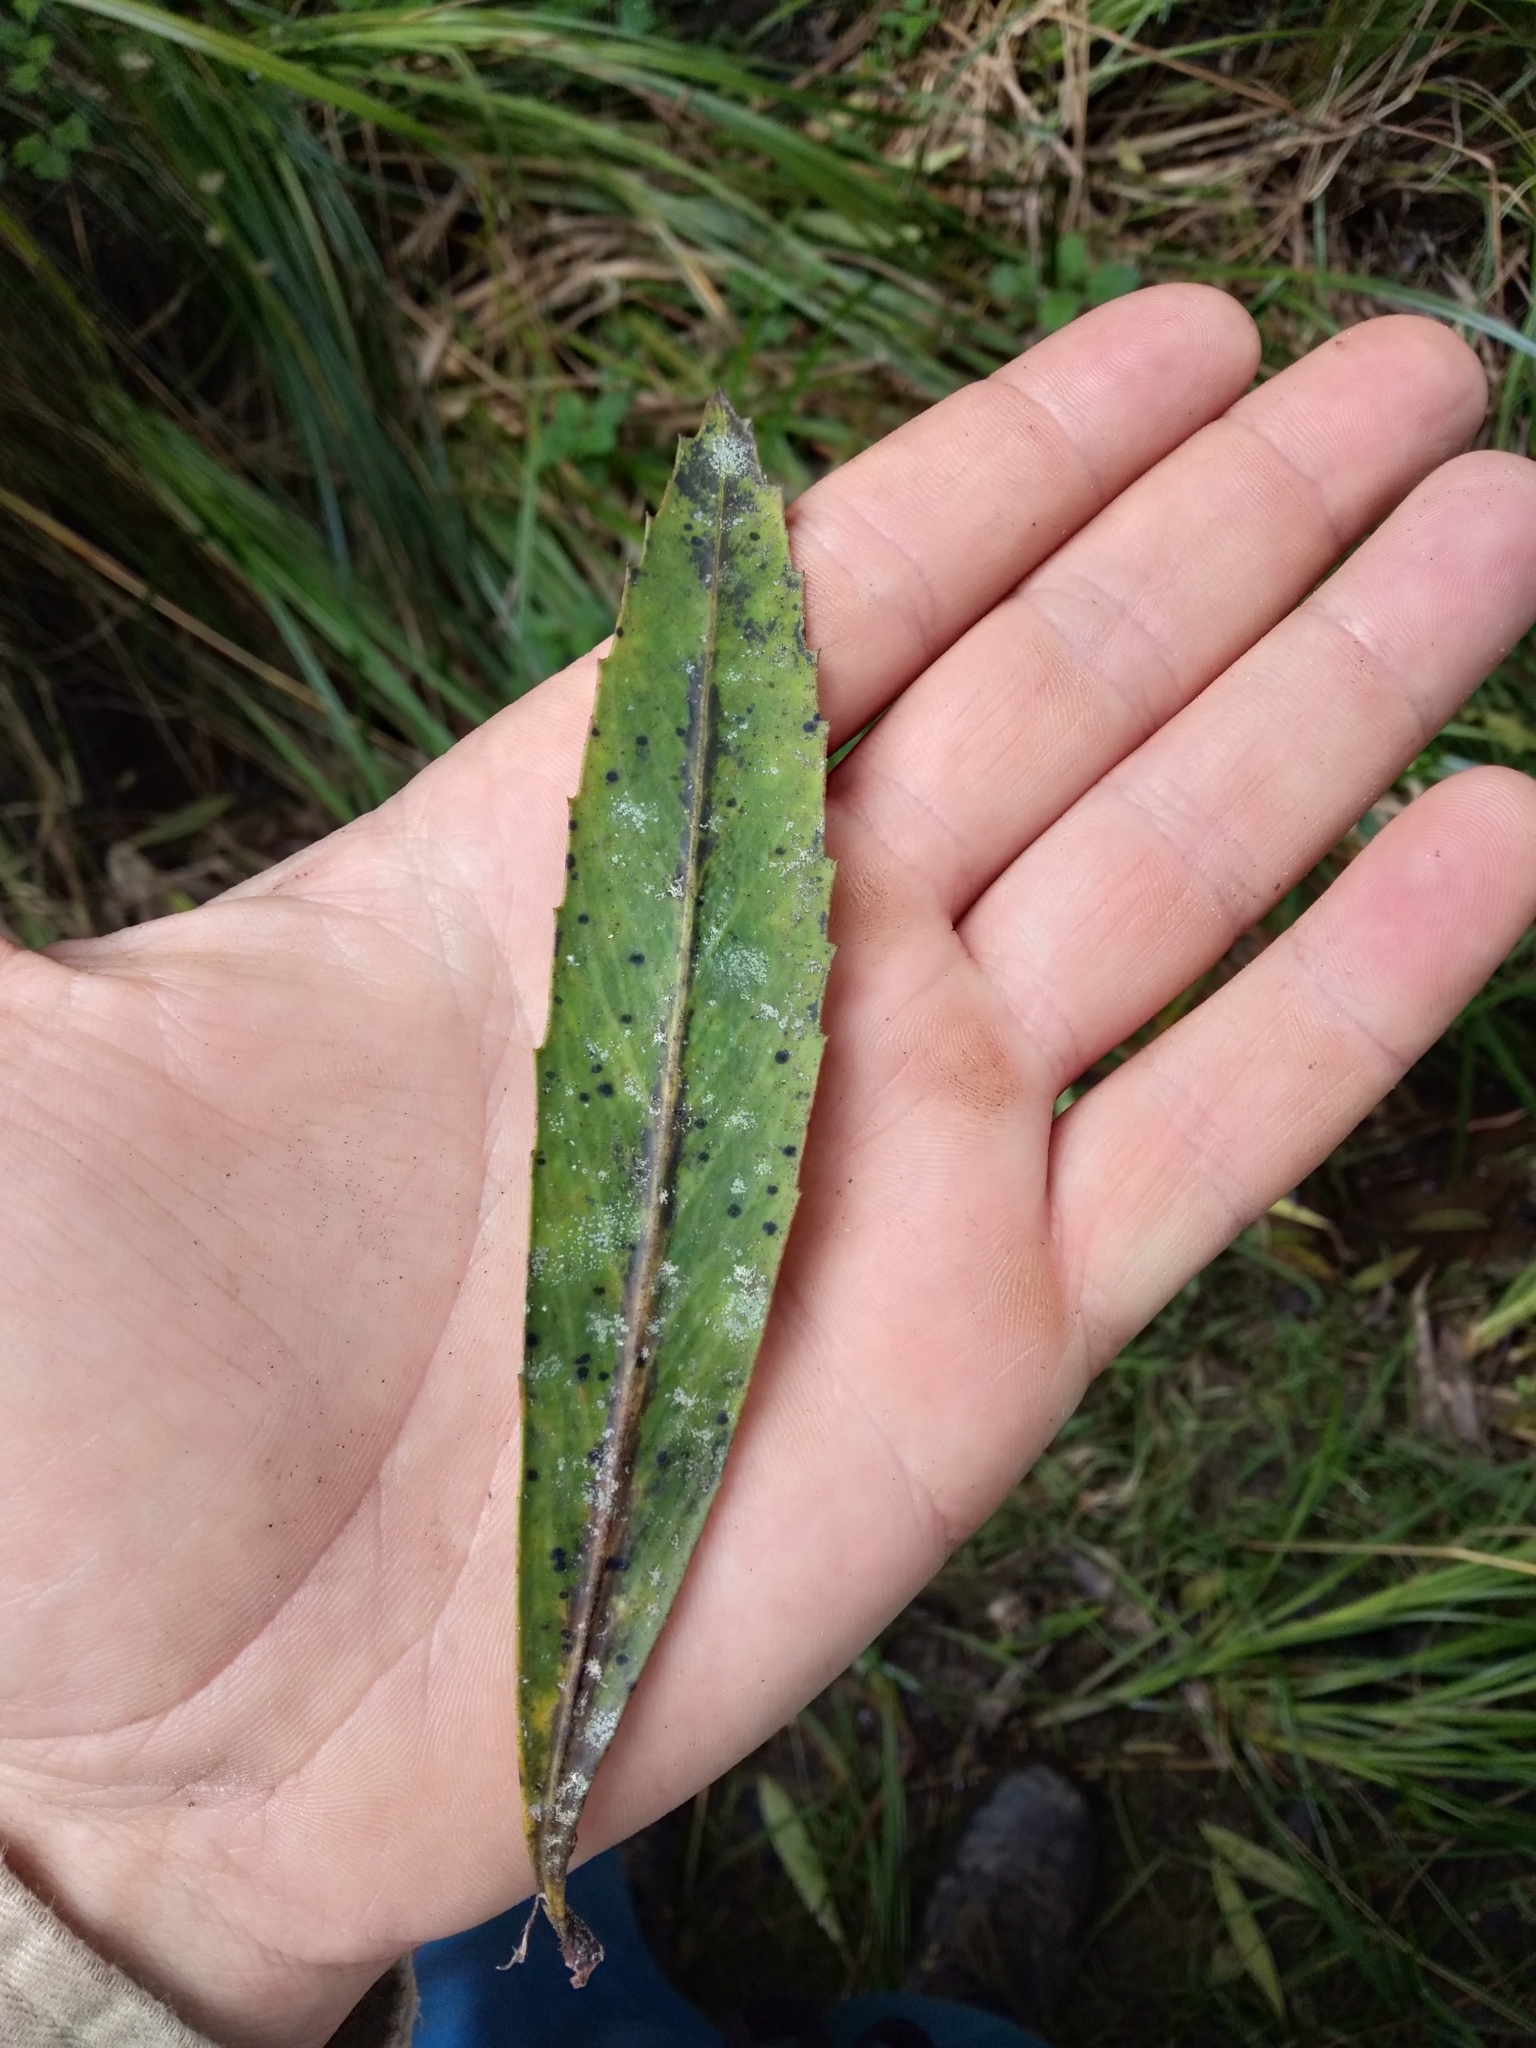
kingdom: Plantae
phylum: Tracheophyta
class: Magnoliopsida
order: Apiales
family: Araliaceae
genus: Pseudopanax
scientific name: Pseudopanax crassifolius
